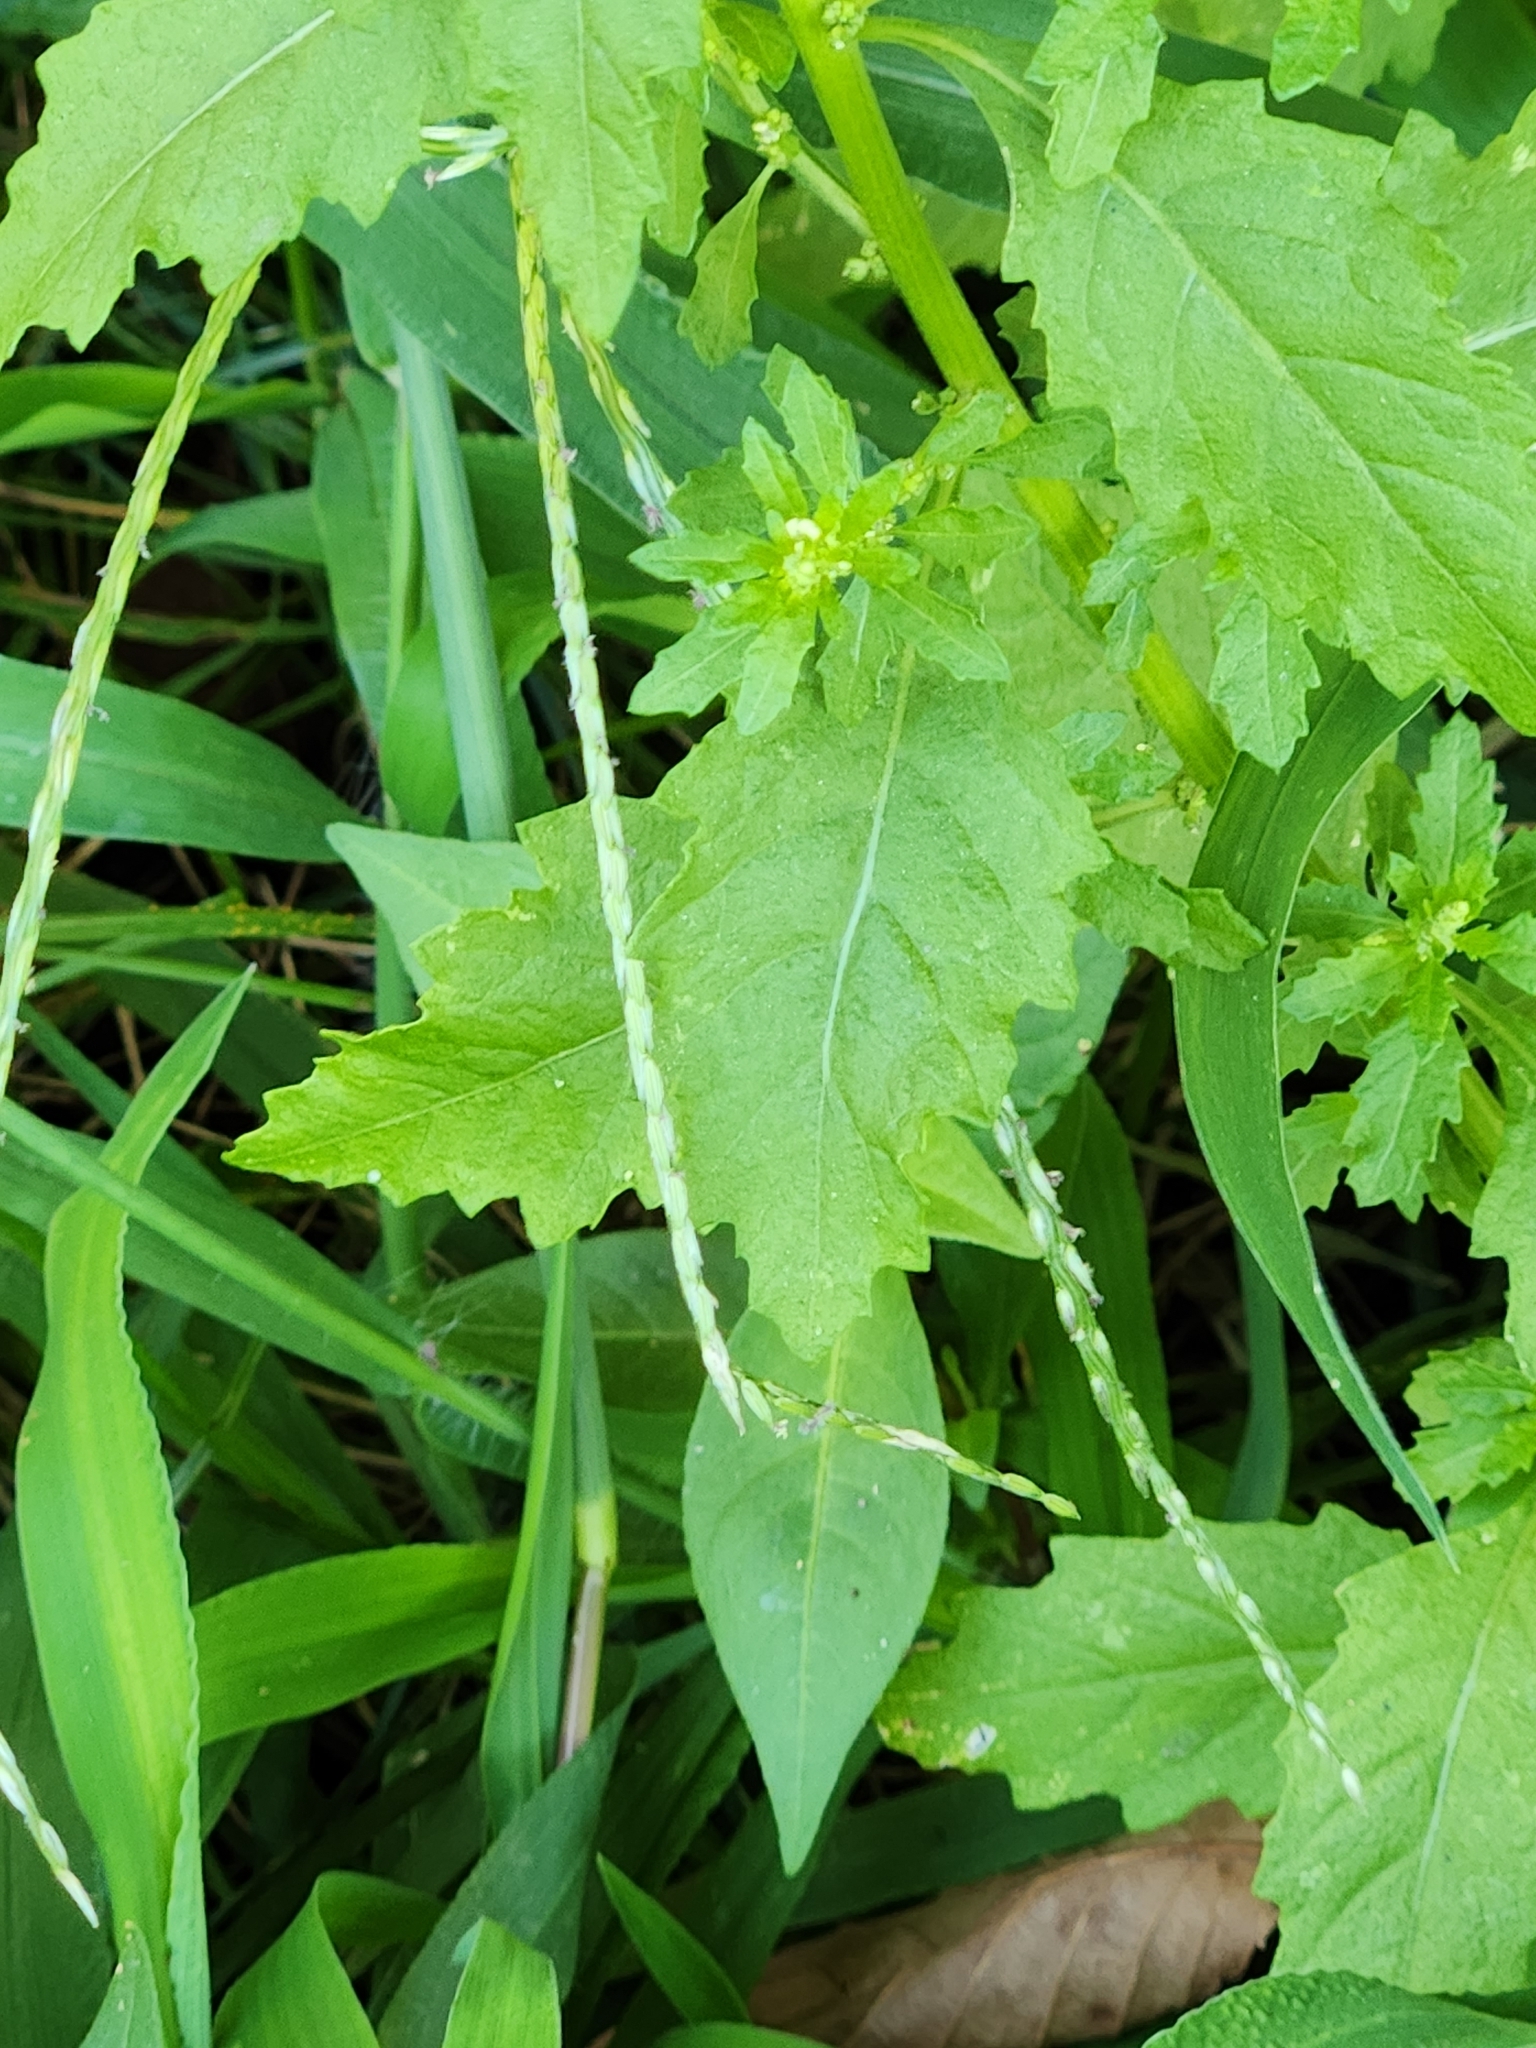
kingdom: Plantae
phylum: Tracheophyta
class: Magnoliopsida
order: Caryophyllales
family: Amaranthaceae
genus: Dysphania
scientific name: Dysphania ambrosioides
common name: Wormseed
